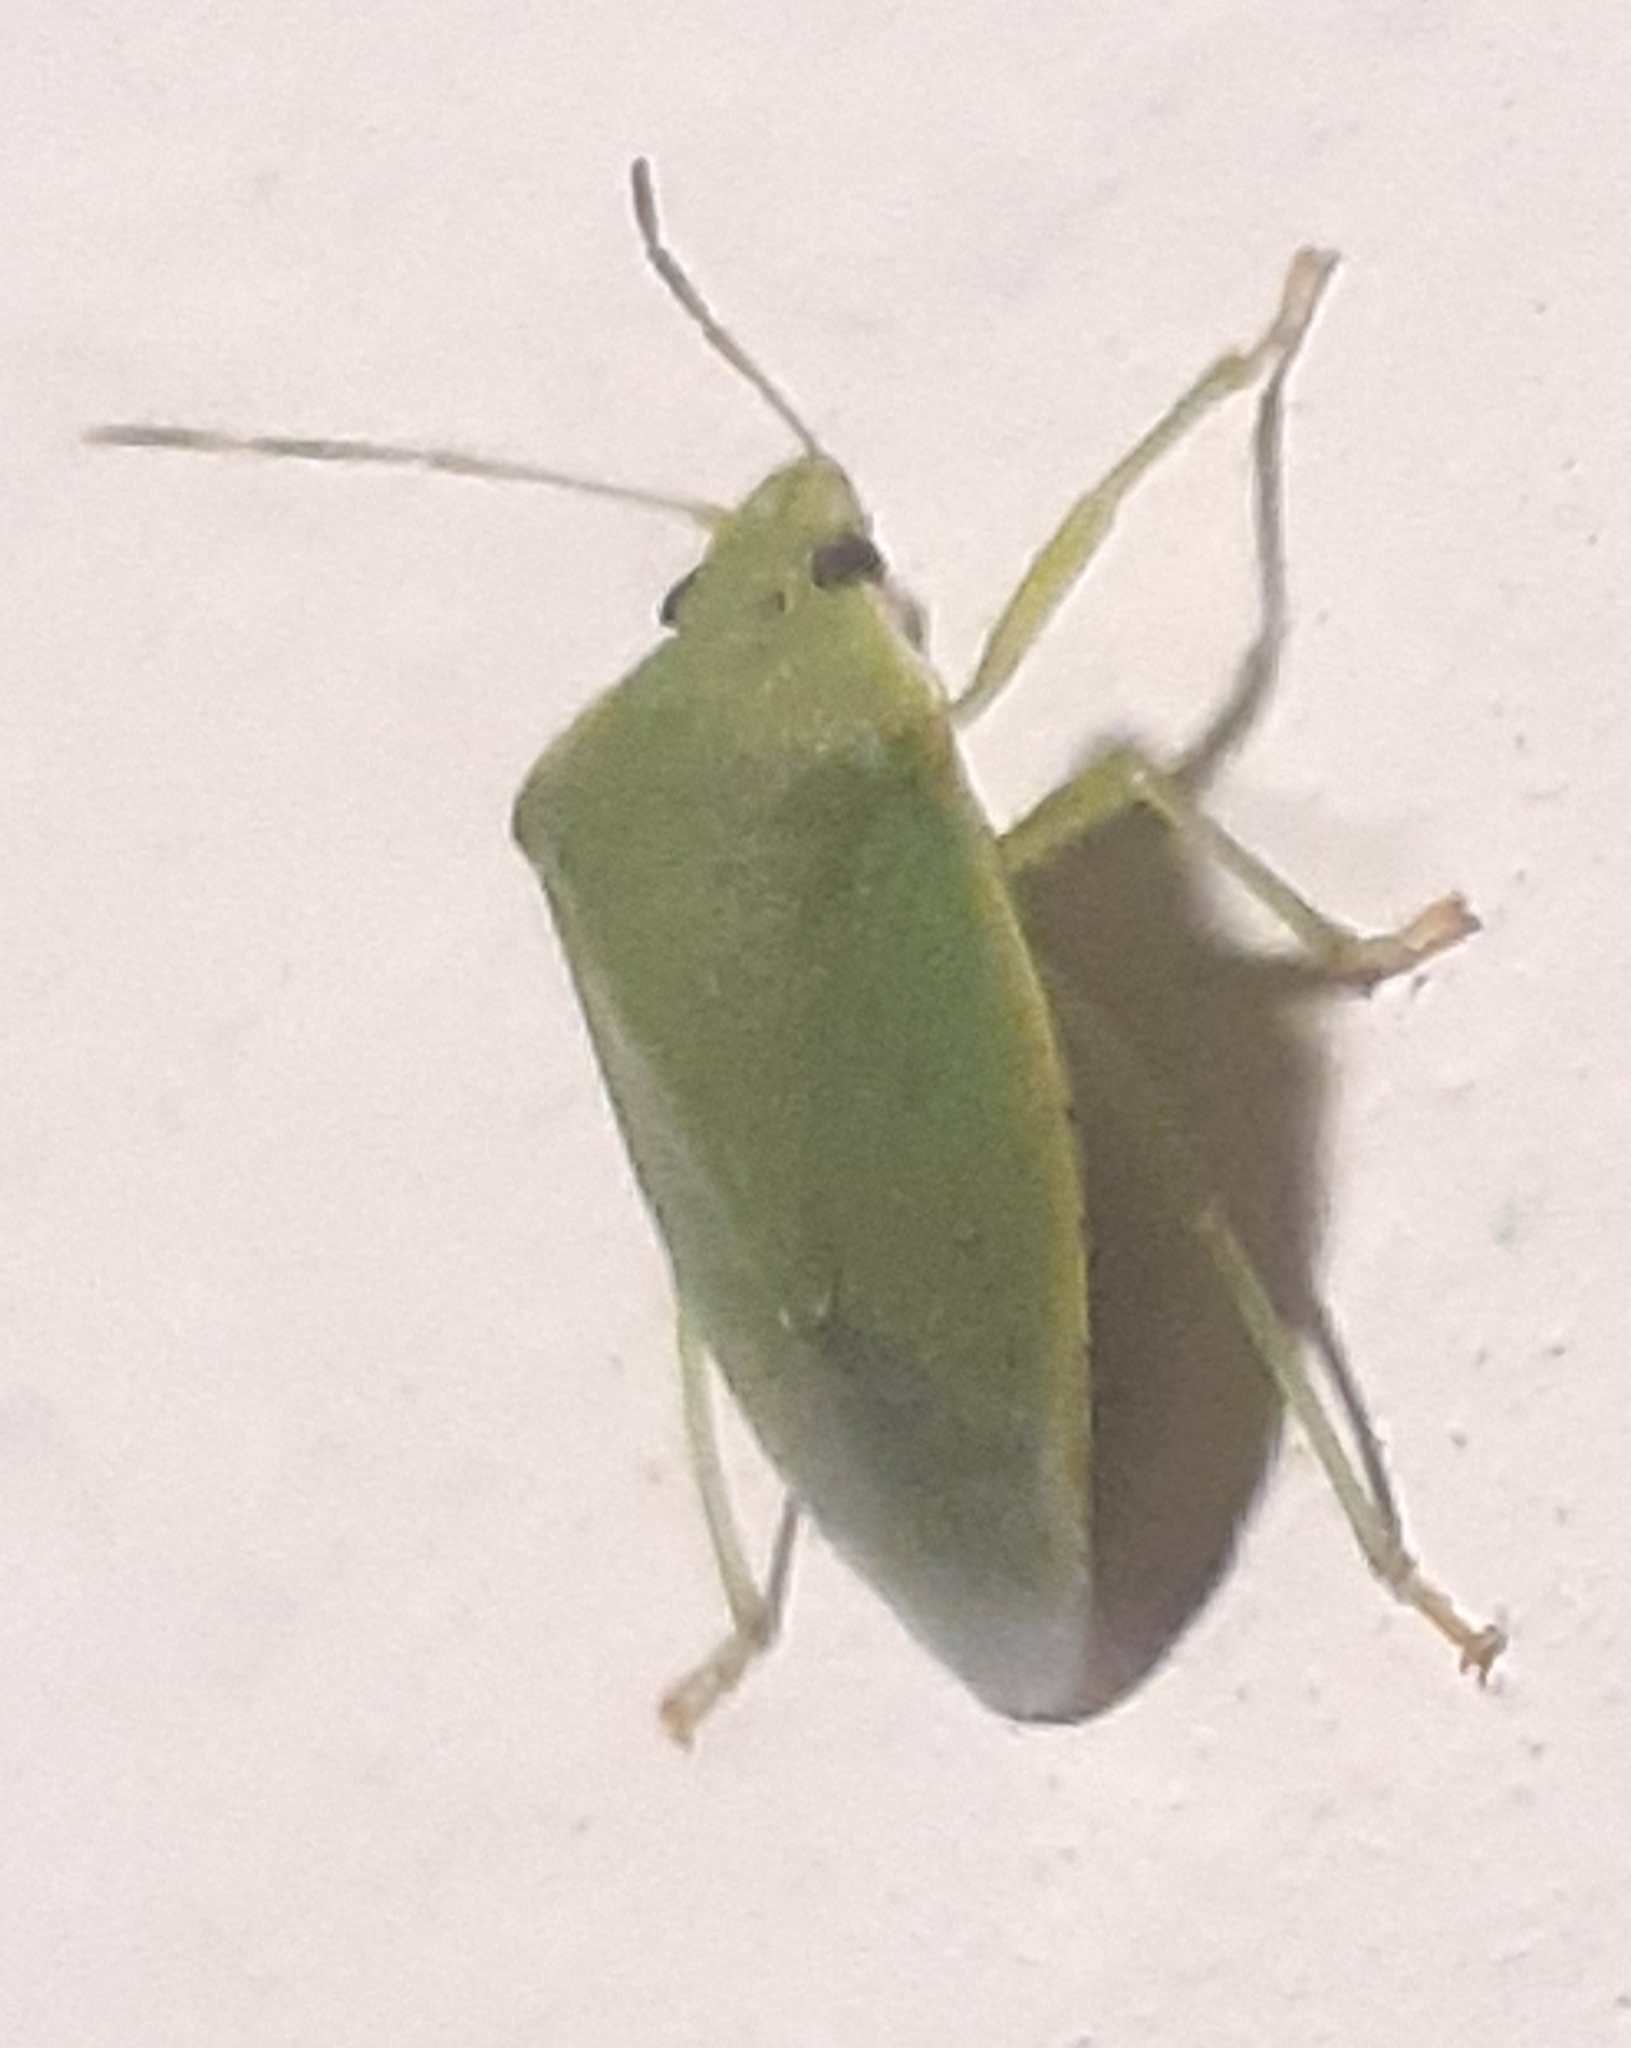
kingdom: Animalia
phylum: Arthropoda
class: Insecta
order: Hemiptera
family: Pentatomidae
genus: Acrosternum
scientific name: Acrosternum millierei
